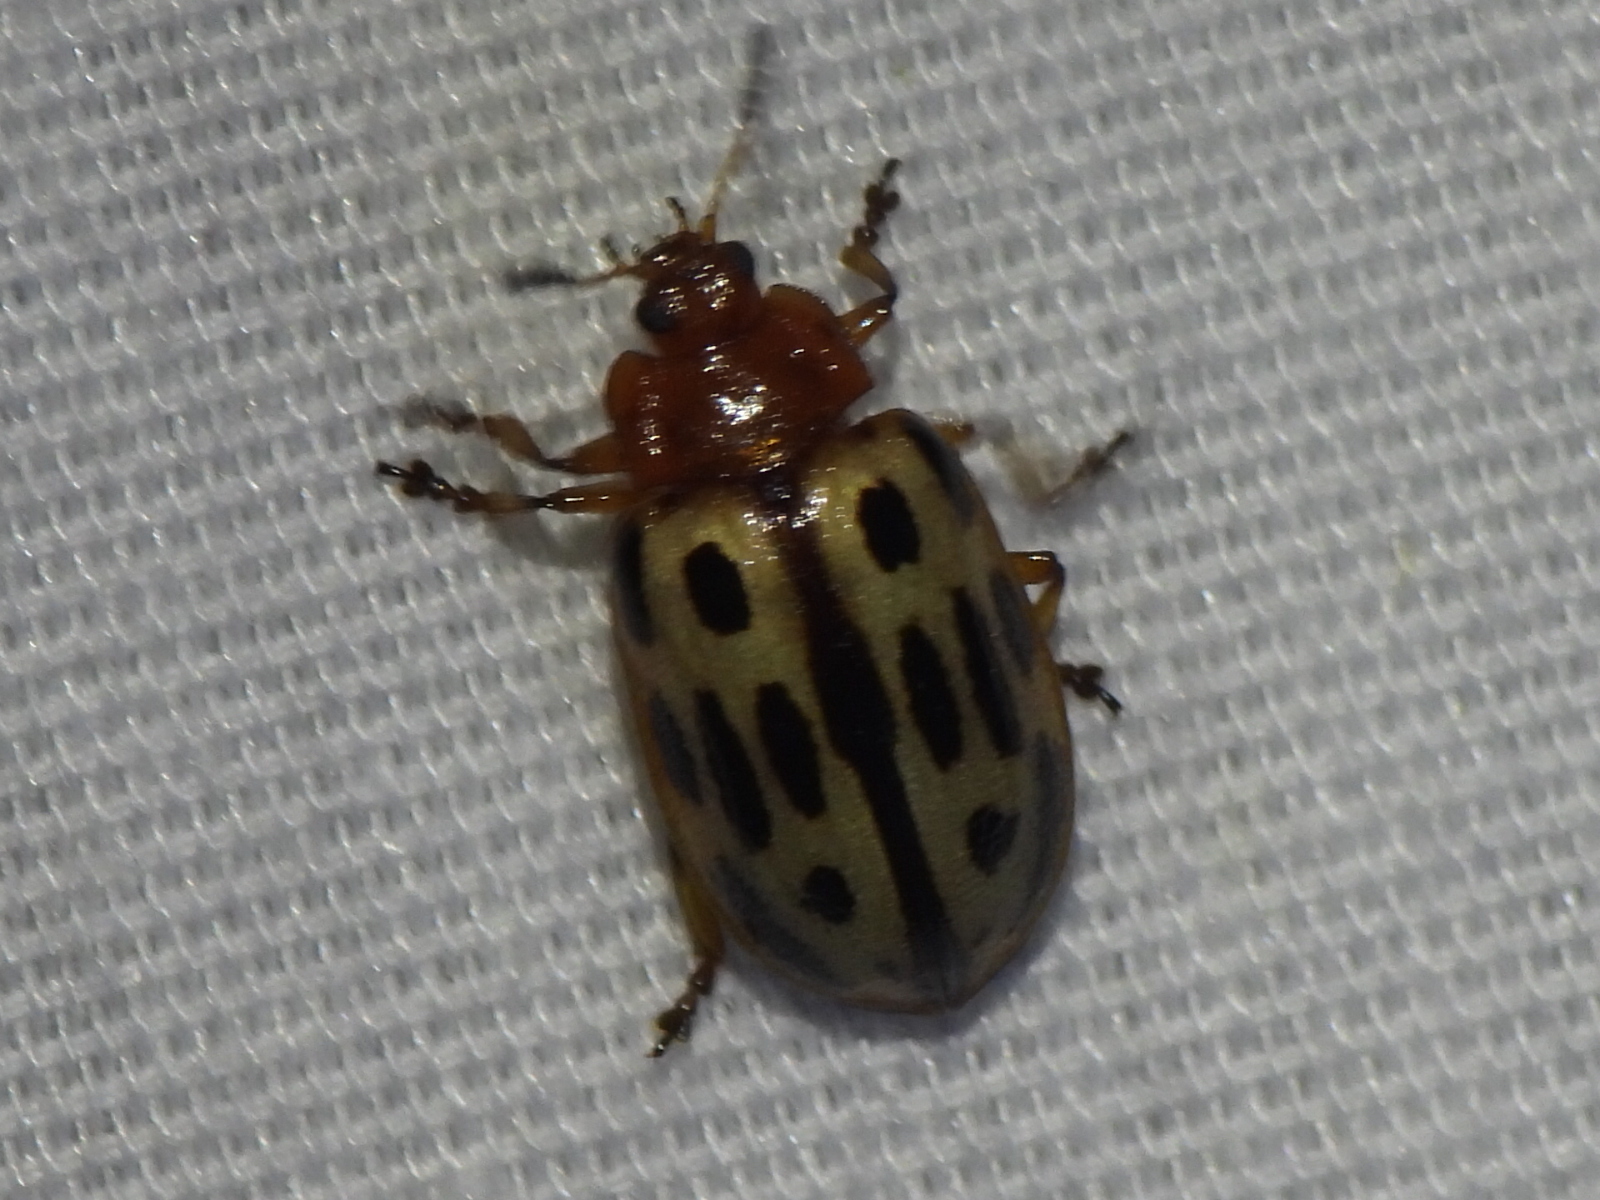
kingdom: Animalia
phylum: Arthropoda
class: Insecta
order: Coleoptera
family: Chrysomelidae
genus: Chrysomela
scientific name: Chrysomela texana
